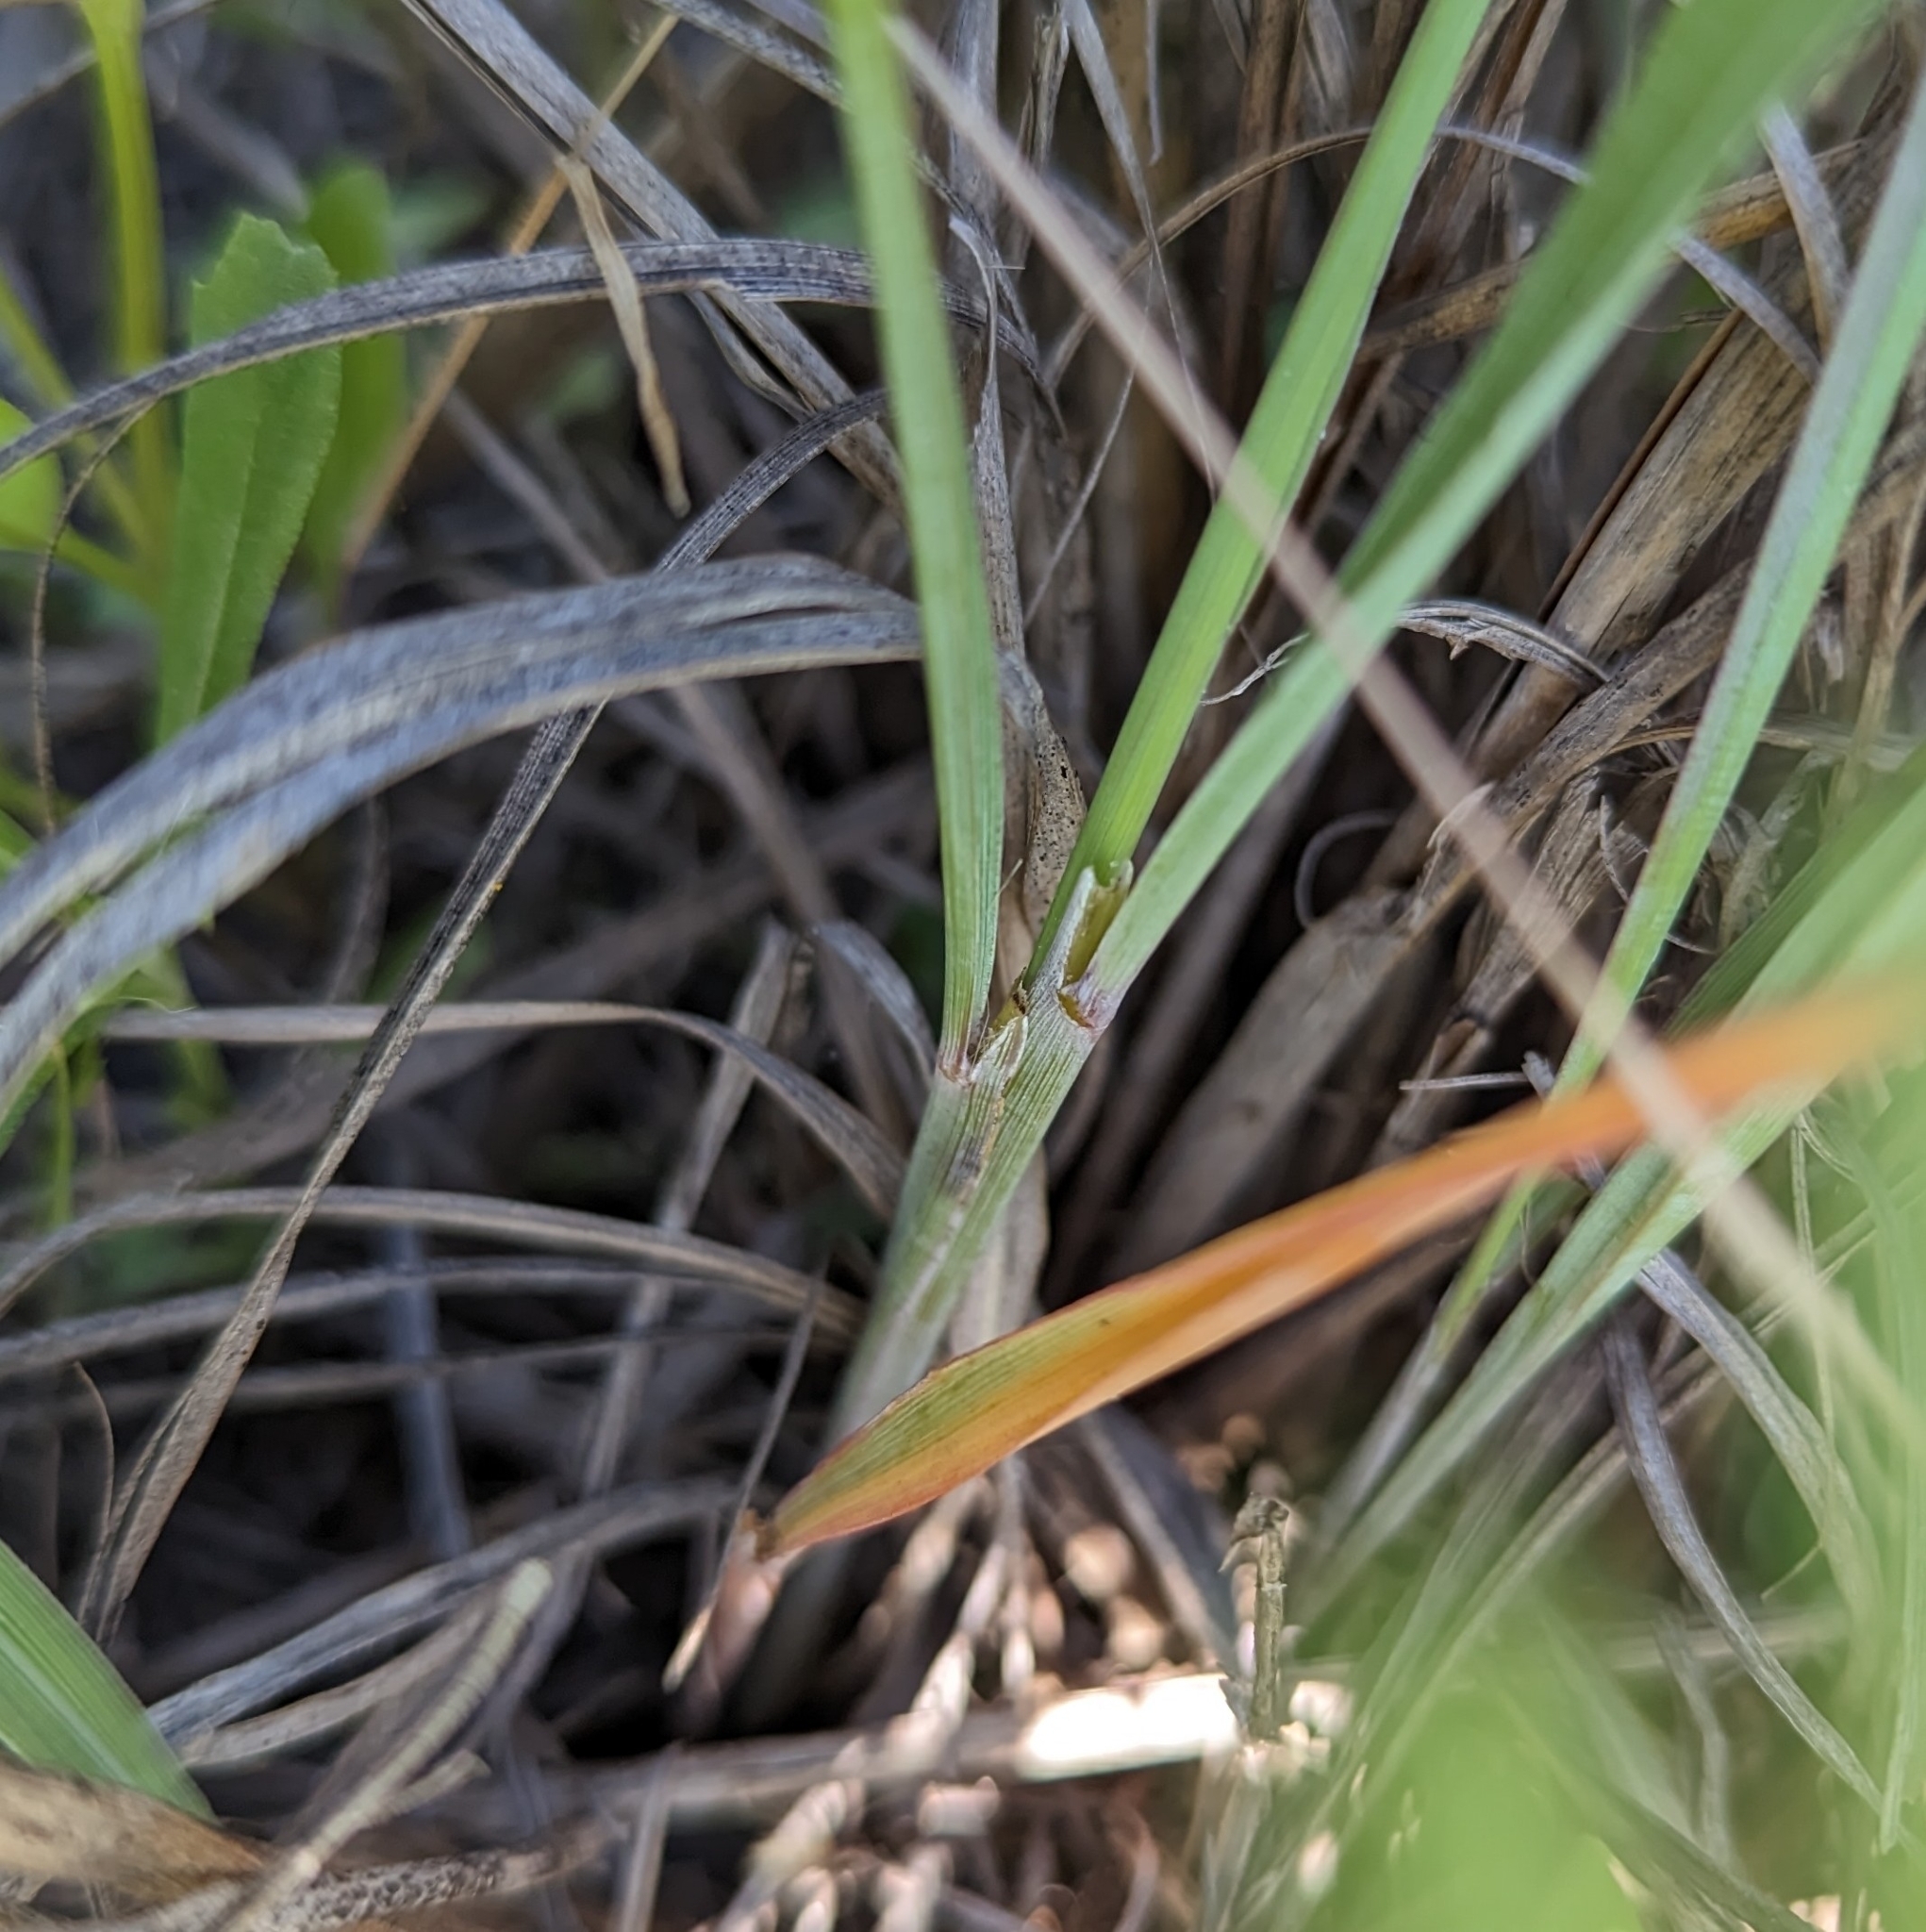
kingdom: Plantae
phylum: Tracheophyta
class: Liliopsida
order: Poales
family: Poaceae
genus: Sorghastrum
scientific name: Sorghastrum nutans
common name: Indian grass
